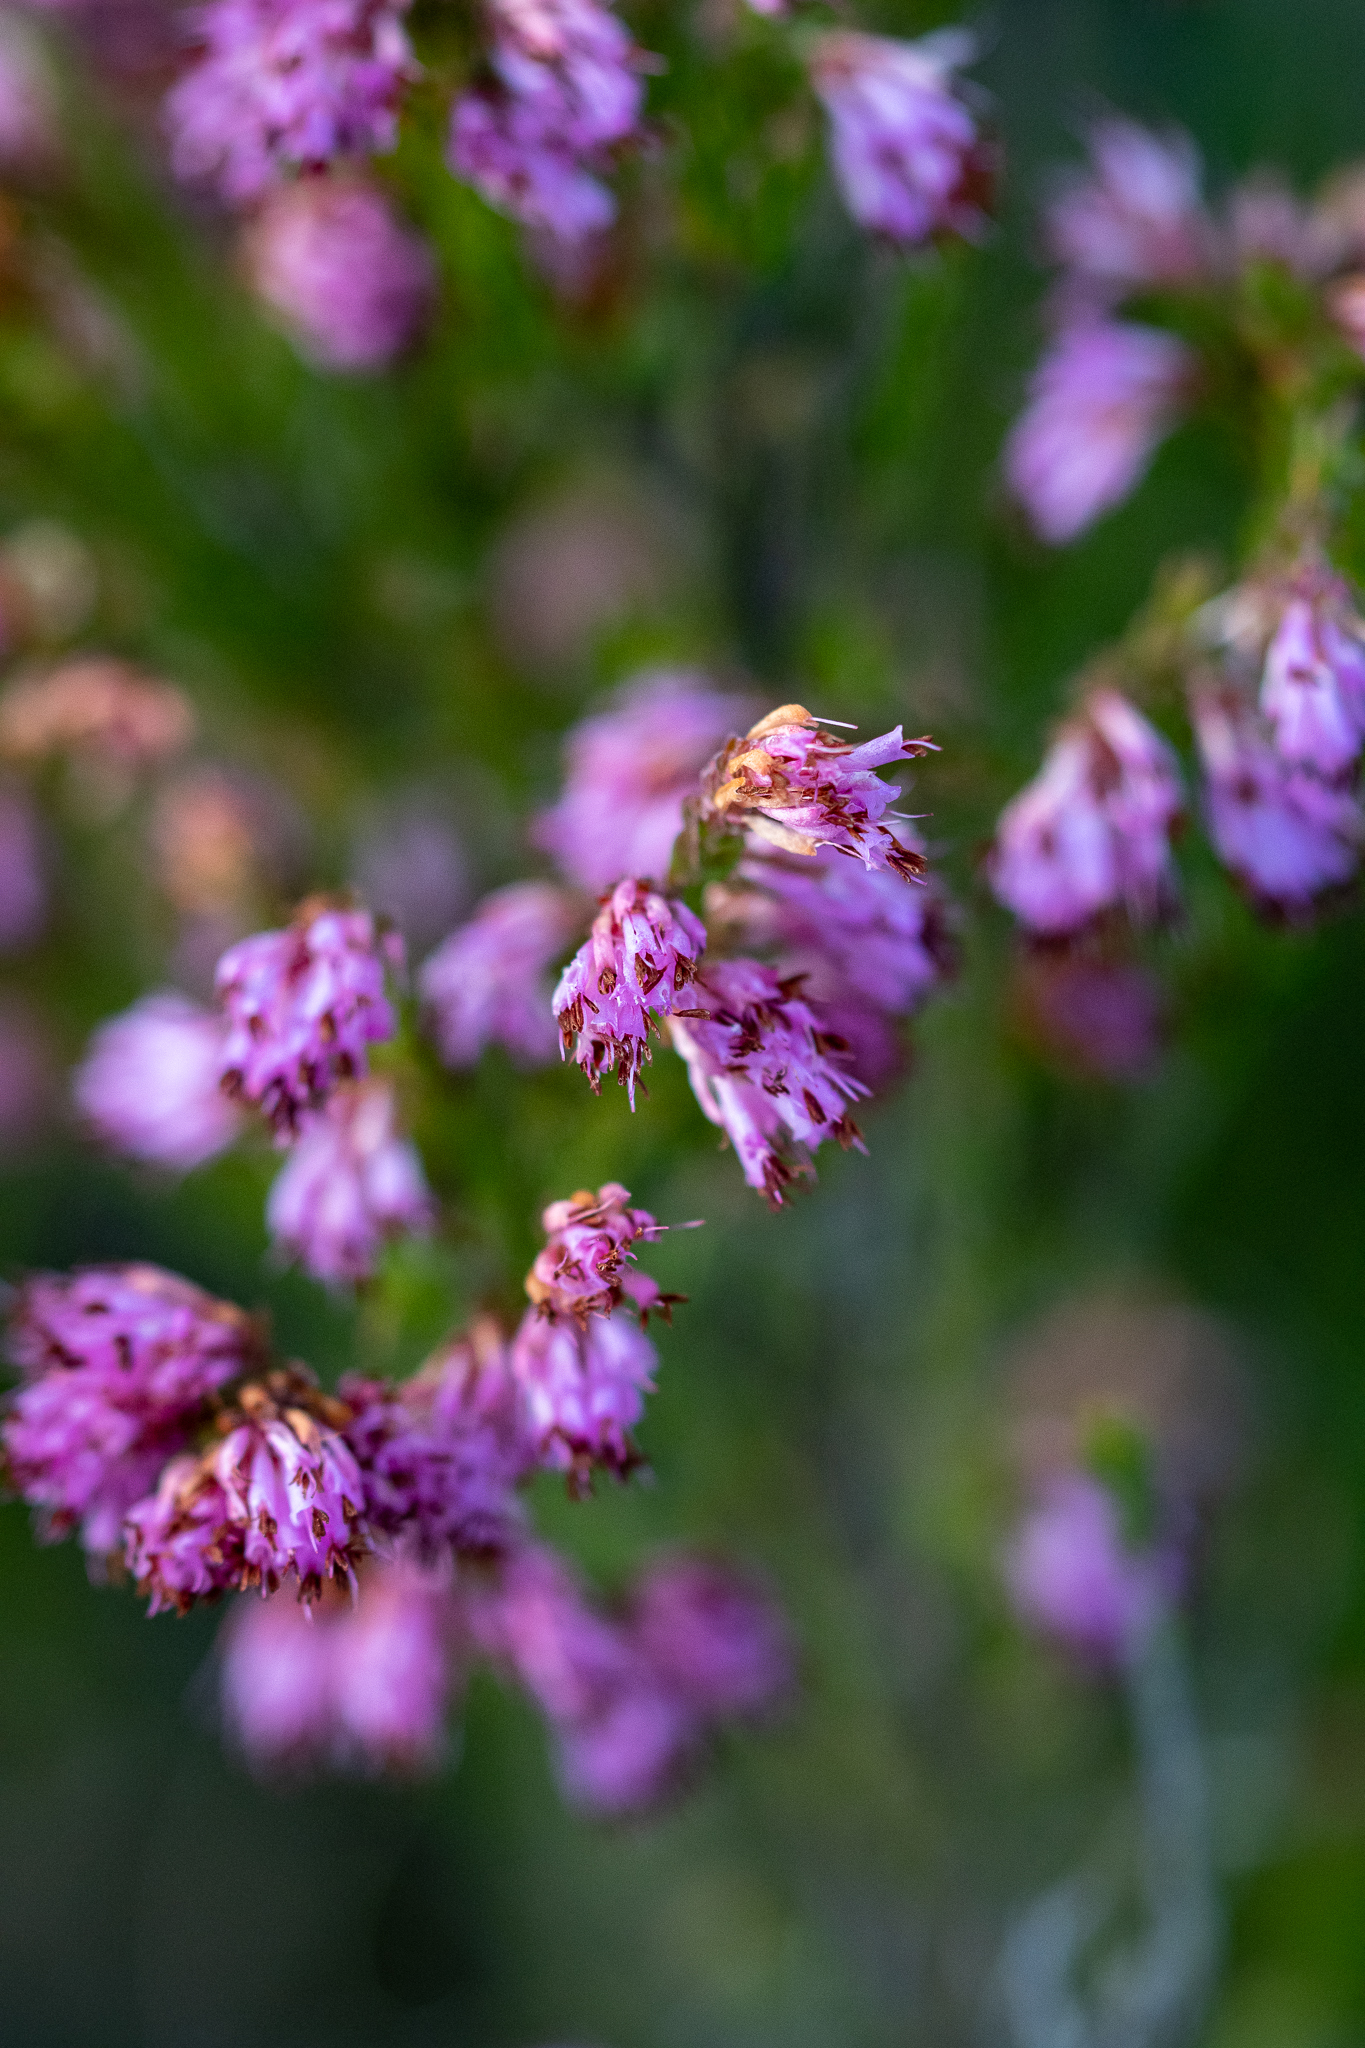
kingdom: Plantae
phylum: Tracheophyta
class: Magnoliopsida
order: Ericales
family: Ericaceae
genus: Erica
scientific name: Erica labialis
